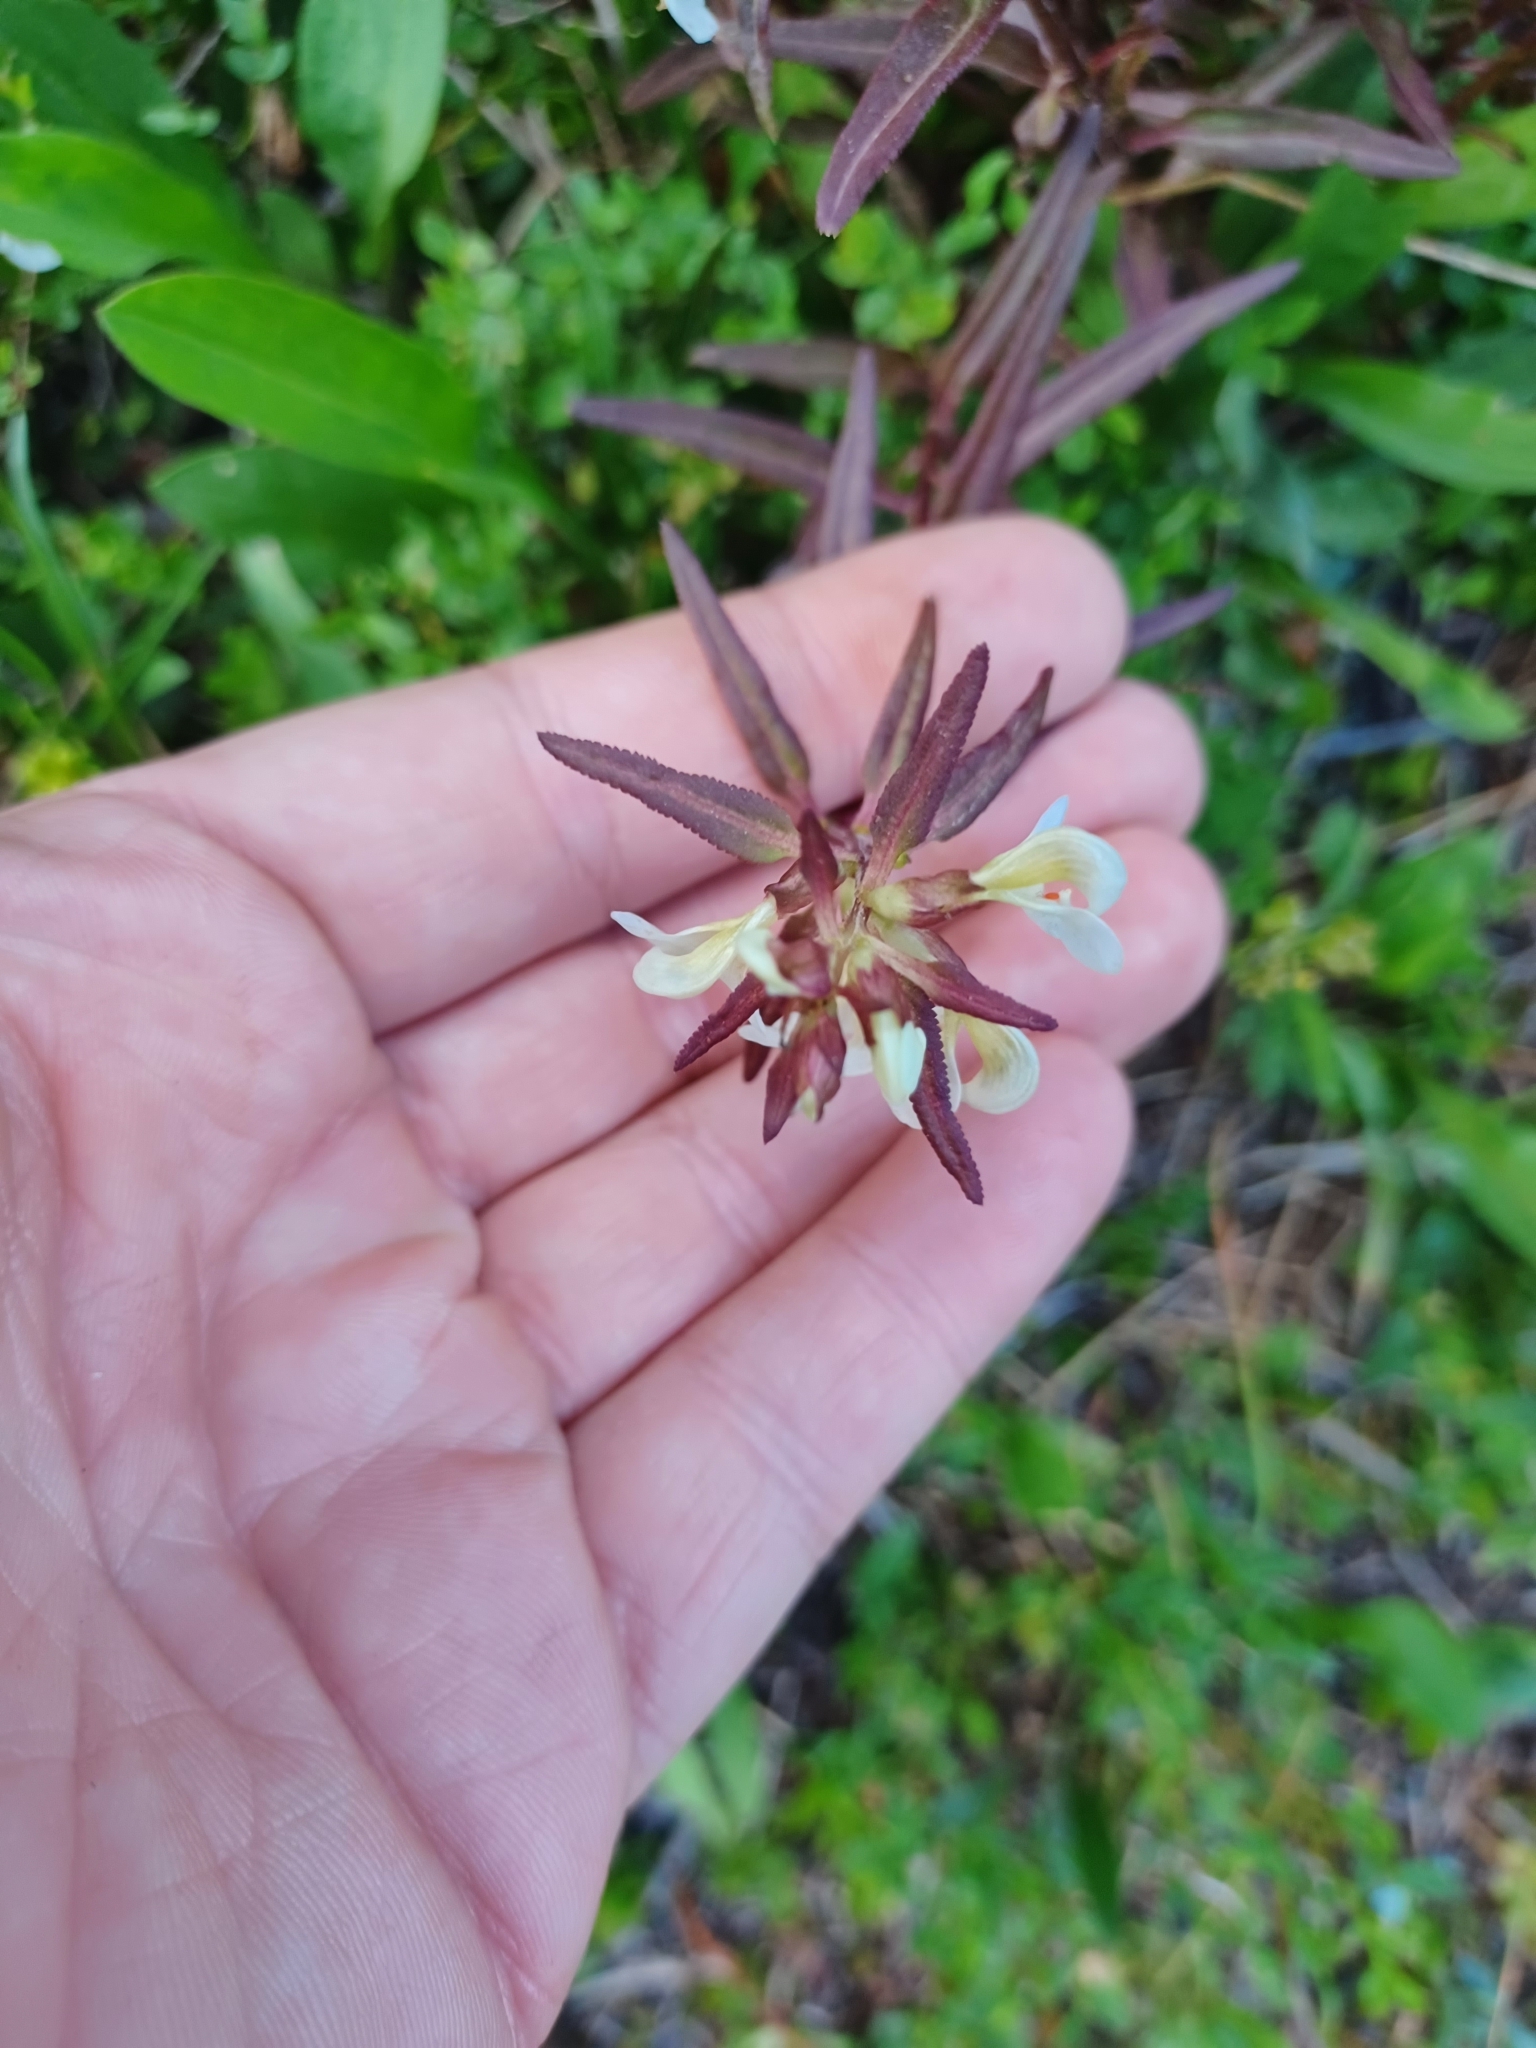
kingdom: Plantae
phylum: Tracheophyta
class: Magnoliopsida
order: Lamiales
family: Orobanchaceae
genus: Pedicularis
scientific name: Pedicularis racemosa
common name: Leafy lousewort
